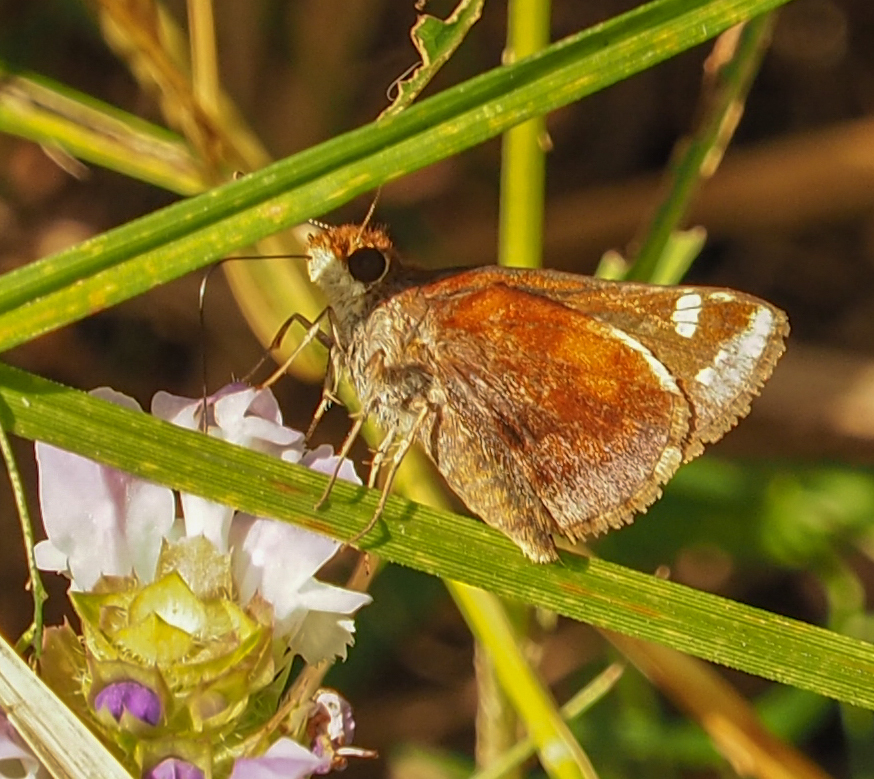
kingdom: Animalia
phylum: Arthropoda
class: Insecta
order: Lepidoptera
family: Hesperiidae
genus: Lon
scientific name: Lon zabulon
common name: Zabulon skipper
